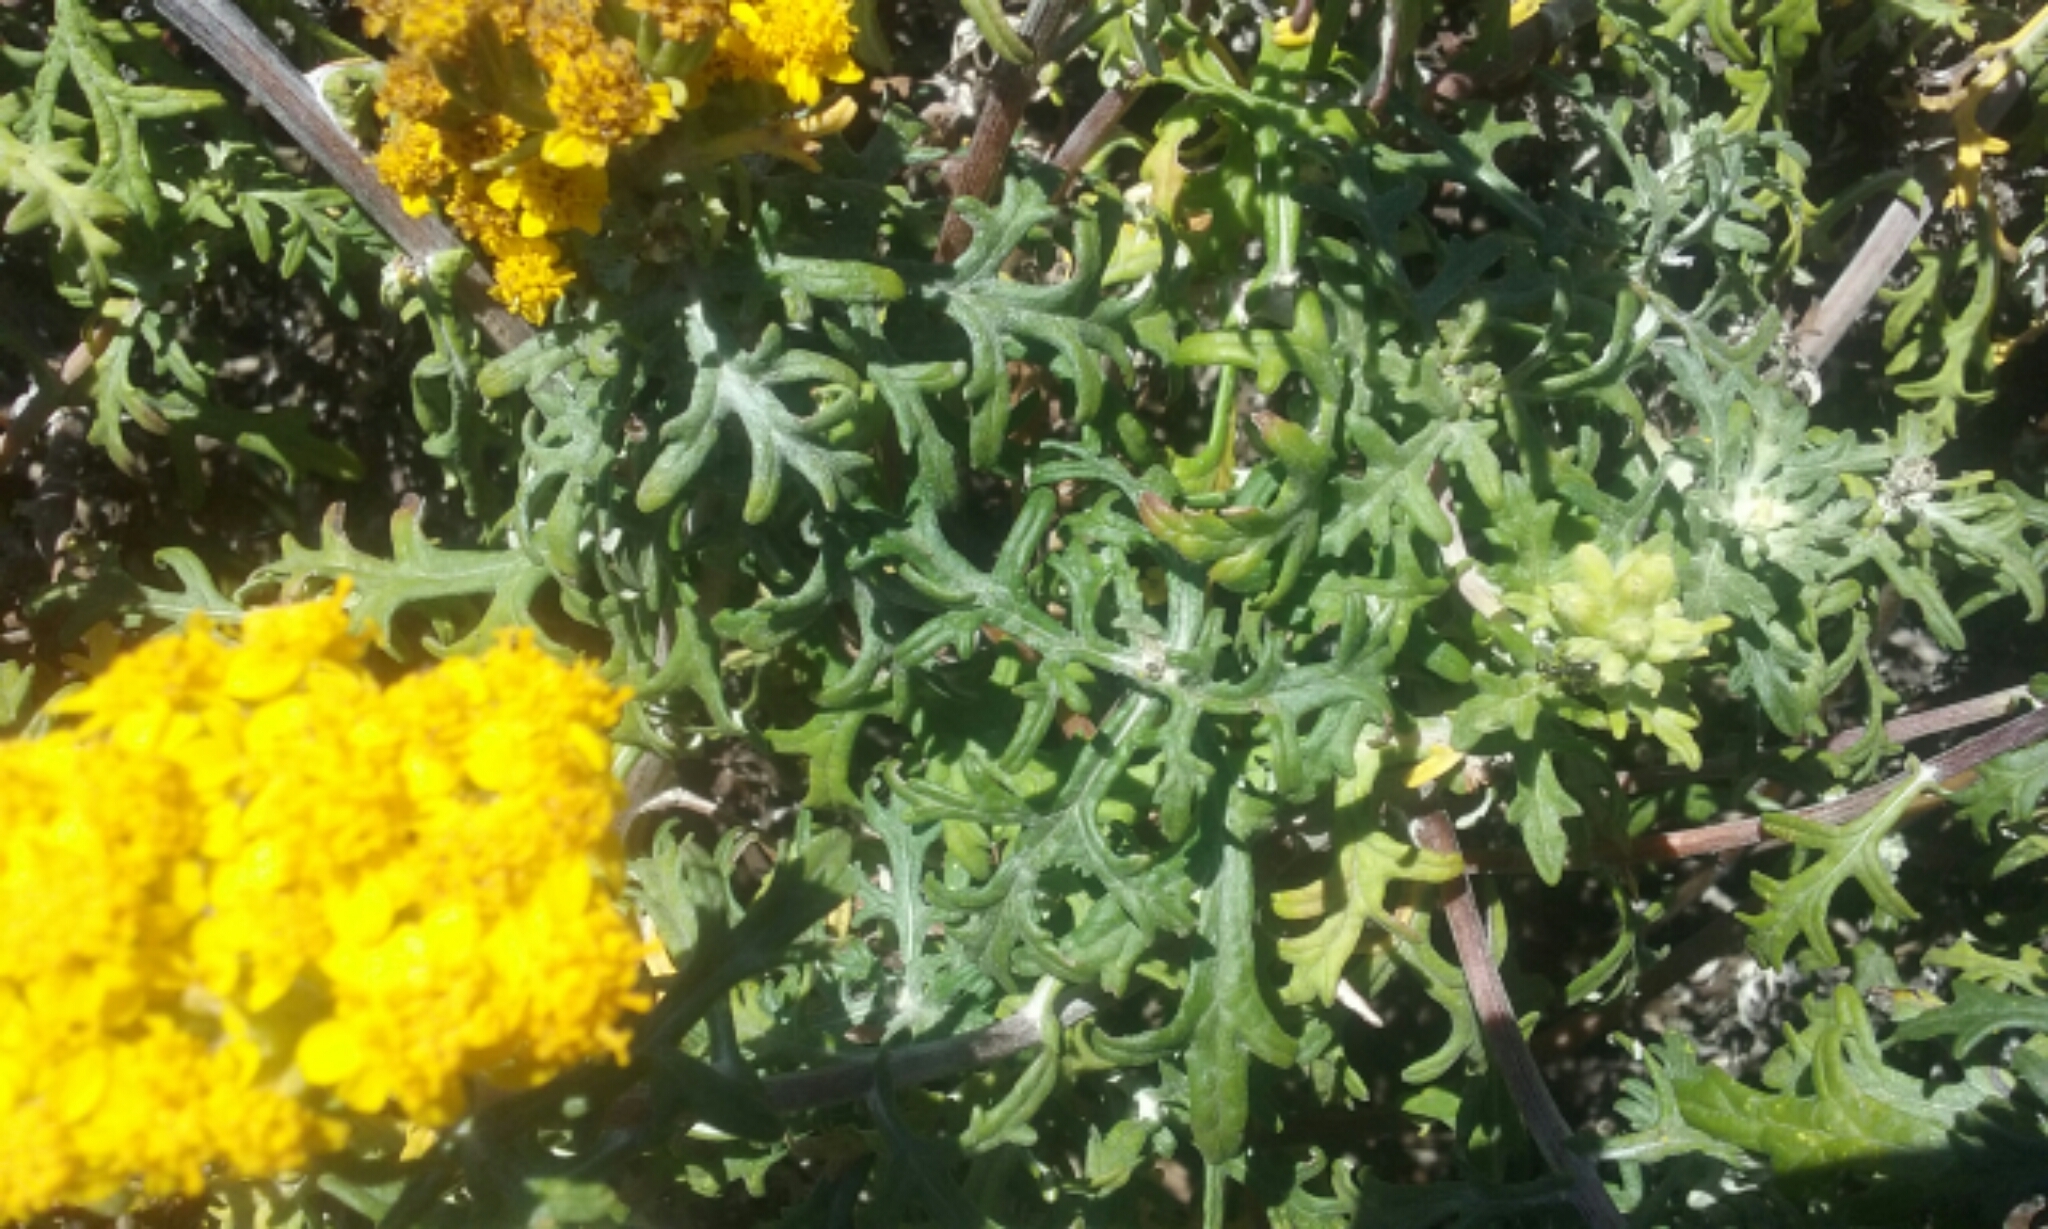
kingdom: Plantae
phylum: Tracheophyta
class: Magnoliopsida
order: Asterales
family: Asteraceae
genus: Eriophyllum
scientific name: Eriophyllum staechadifolium
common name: Lizardtail
